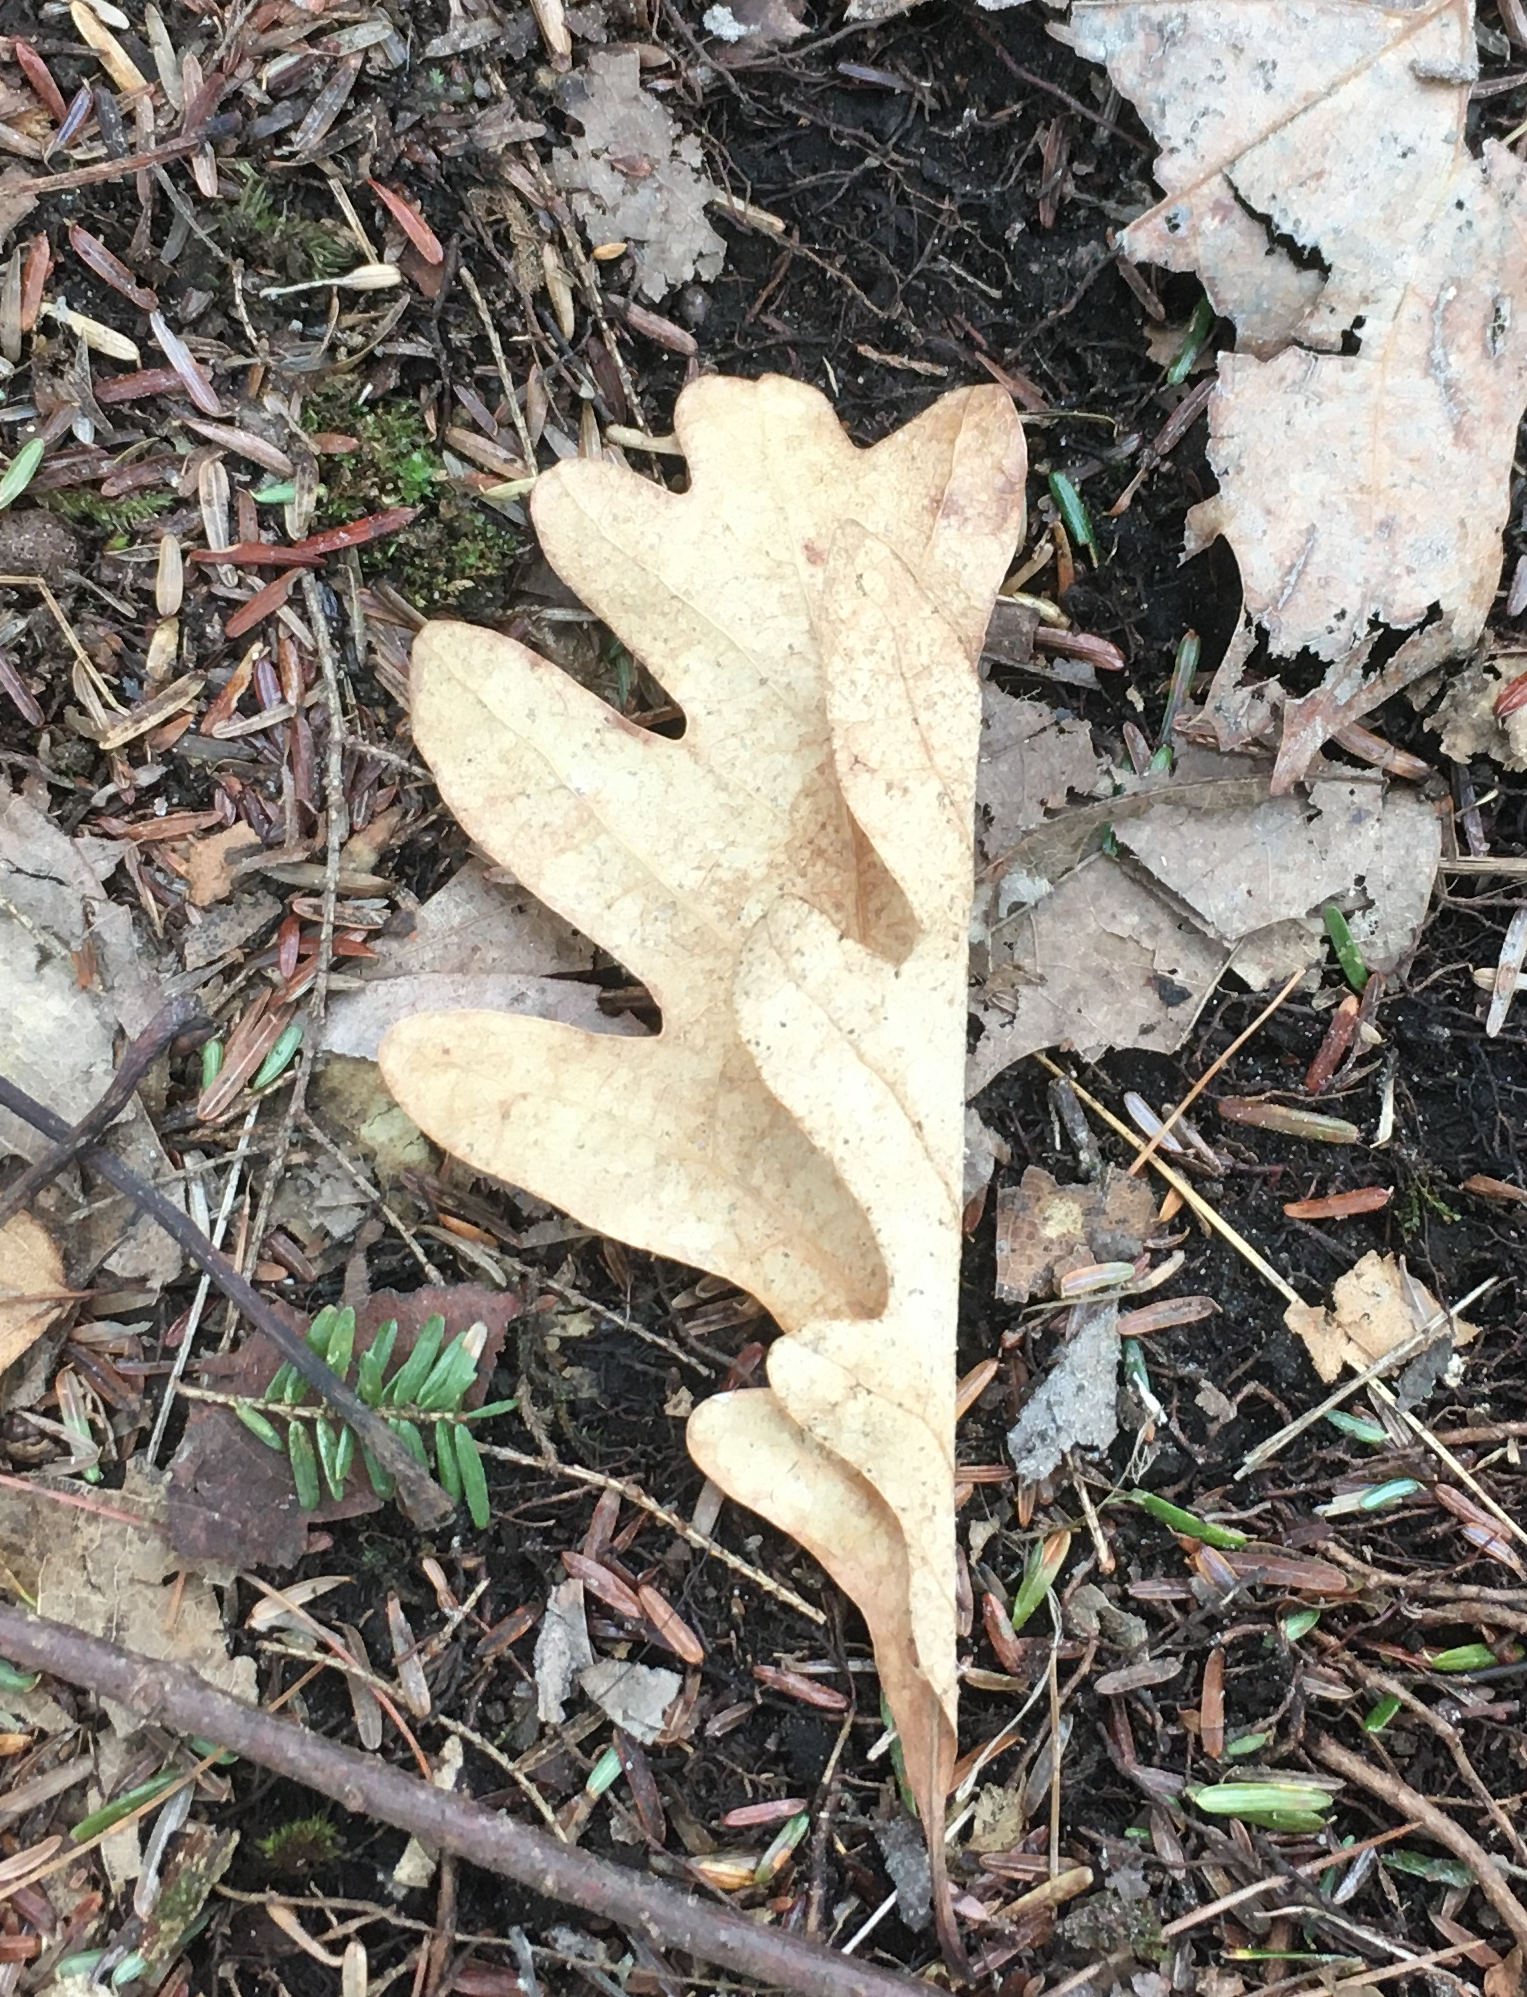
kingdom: Plantae
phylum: Tracheophyta
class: Magnoliopsida
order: Fagales
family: Fagaceae
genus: Quercus
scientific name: Quercus alba
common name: White oak
